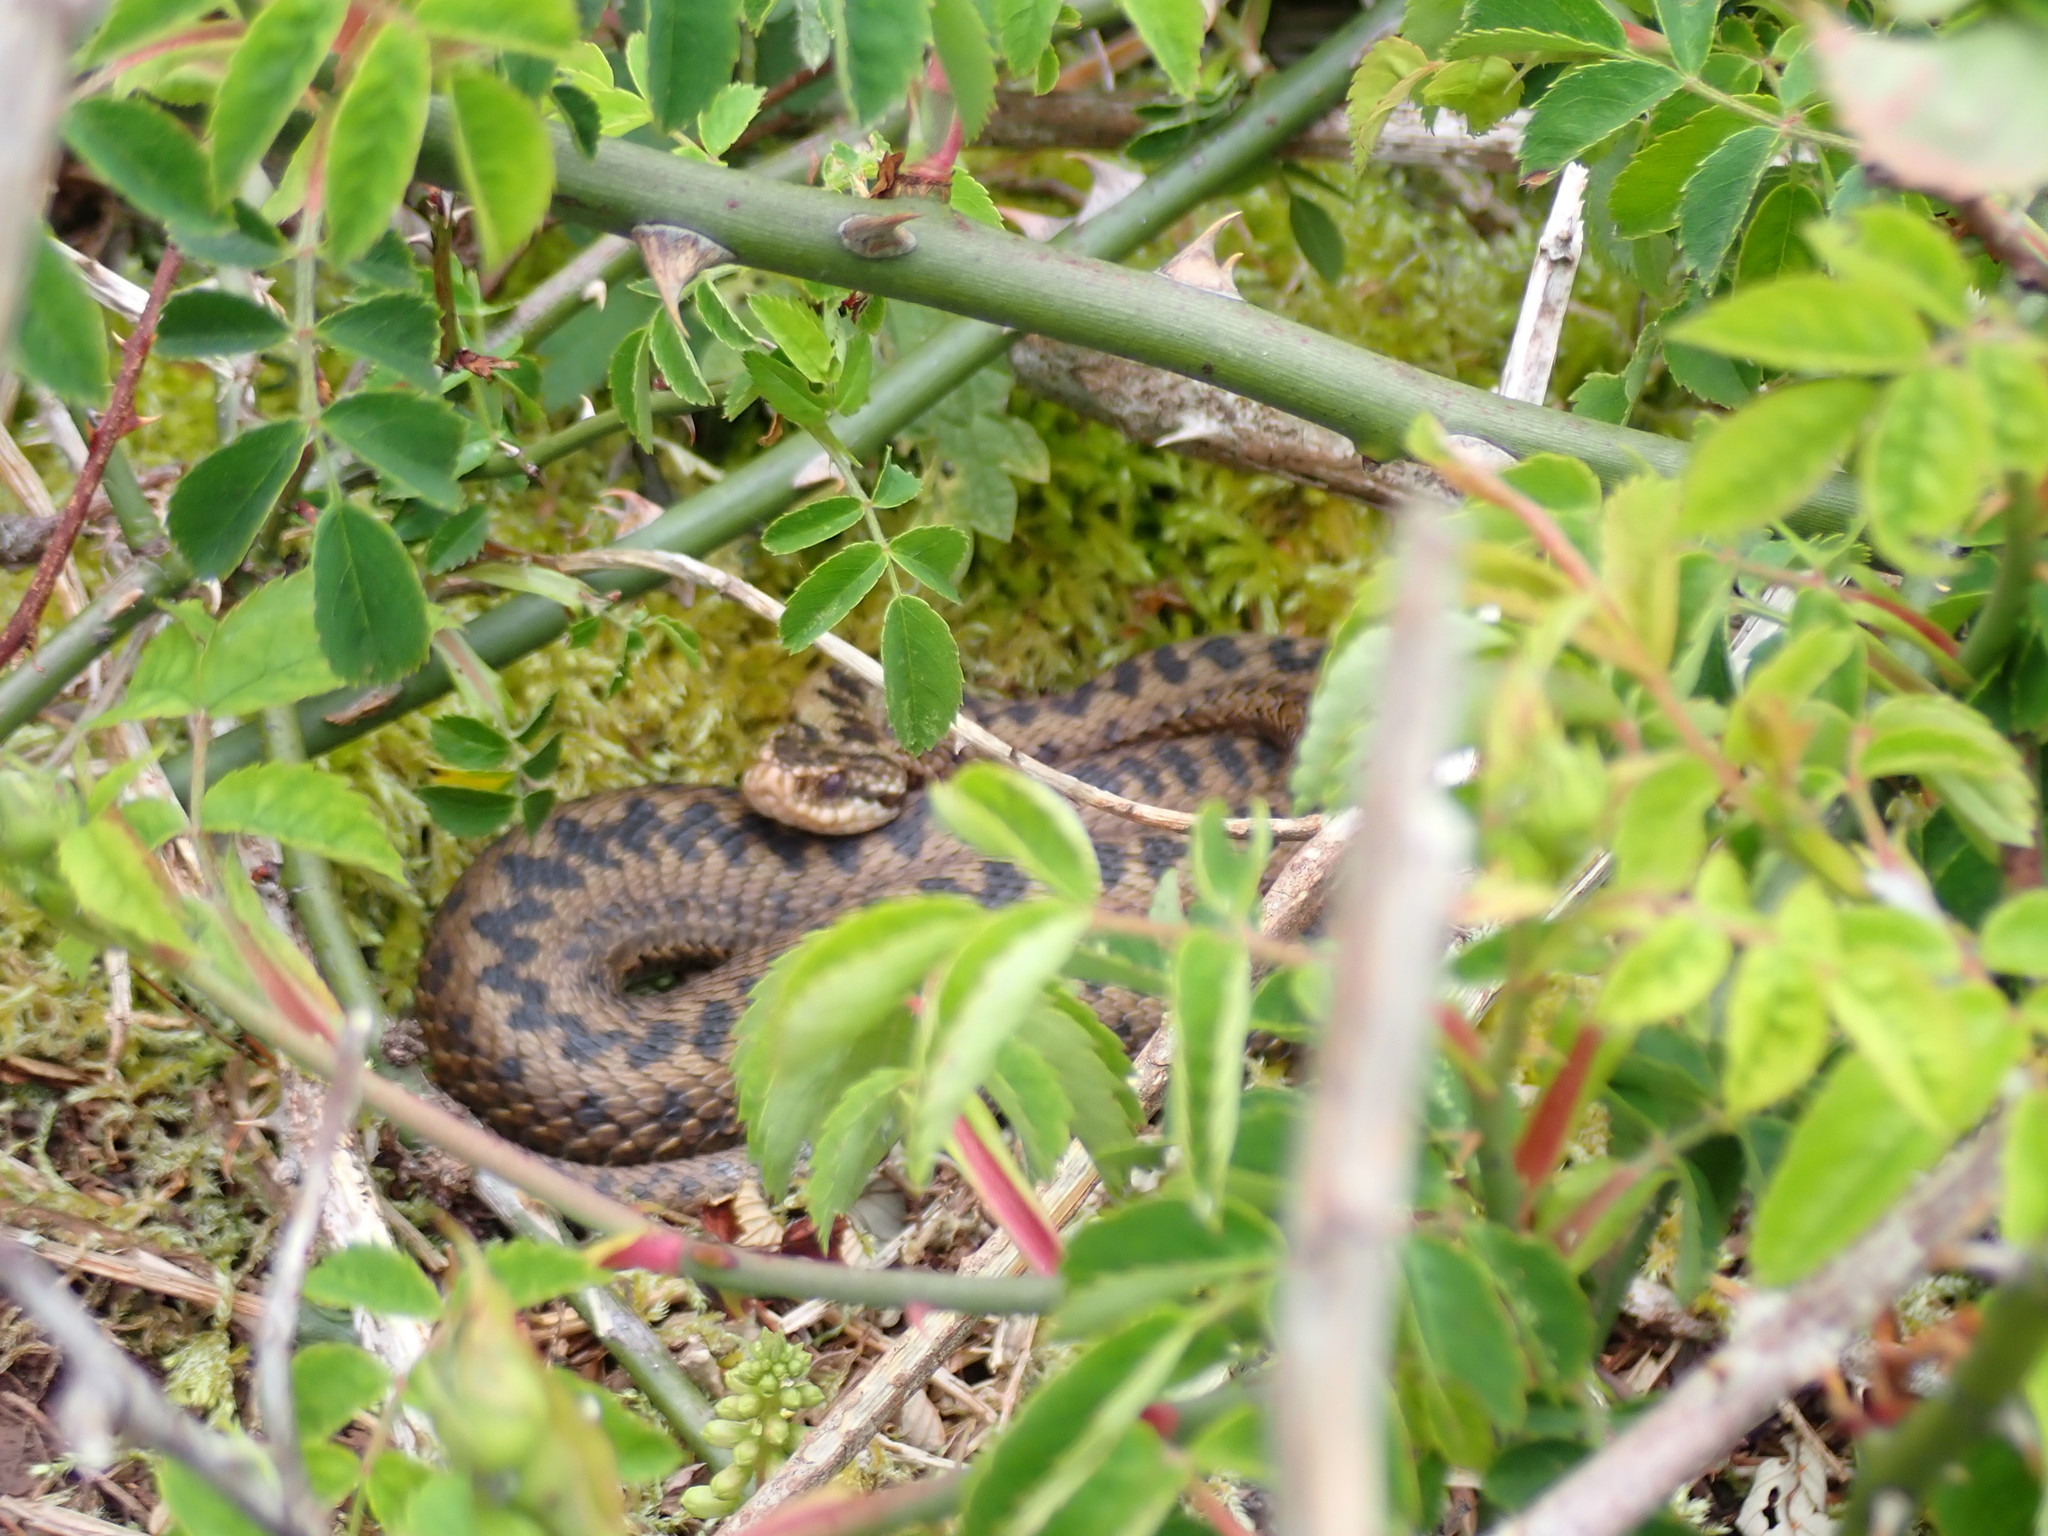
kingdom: Animalia
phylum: Chordata
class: Squamata
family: Viperidae
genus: Vipera
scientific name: Vipera berus
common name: Adder
